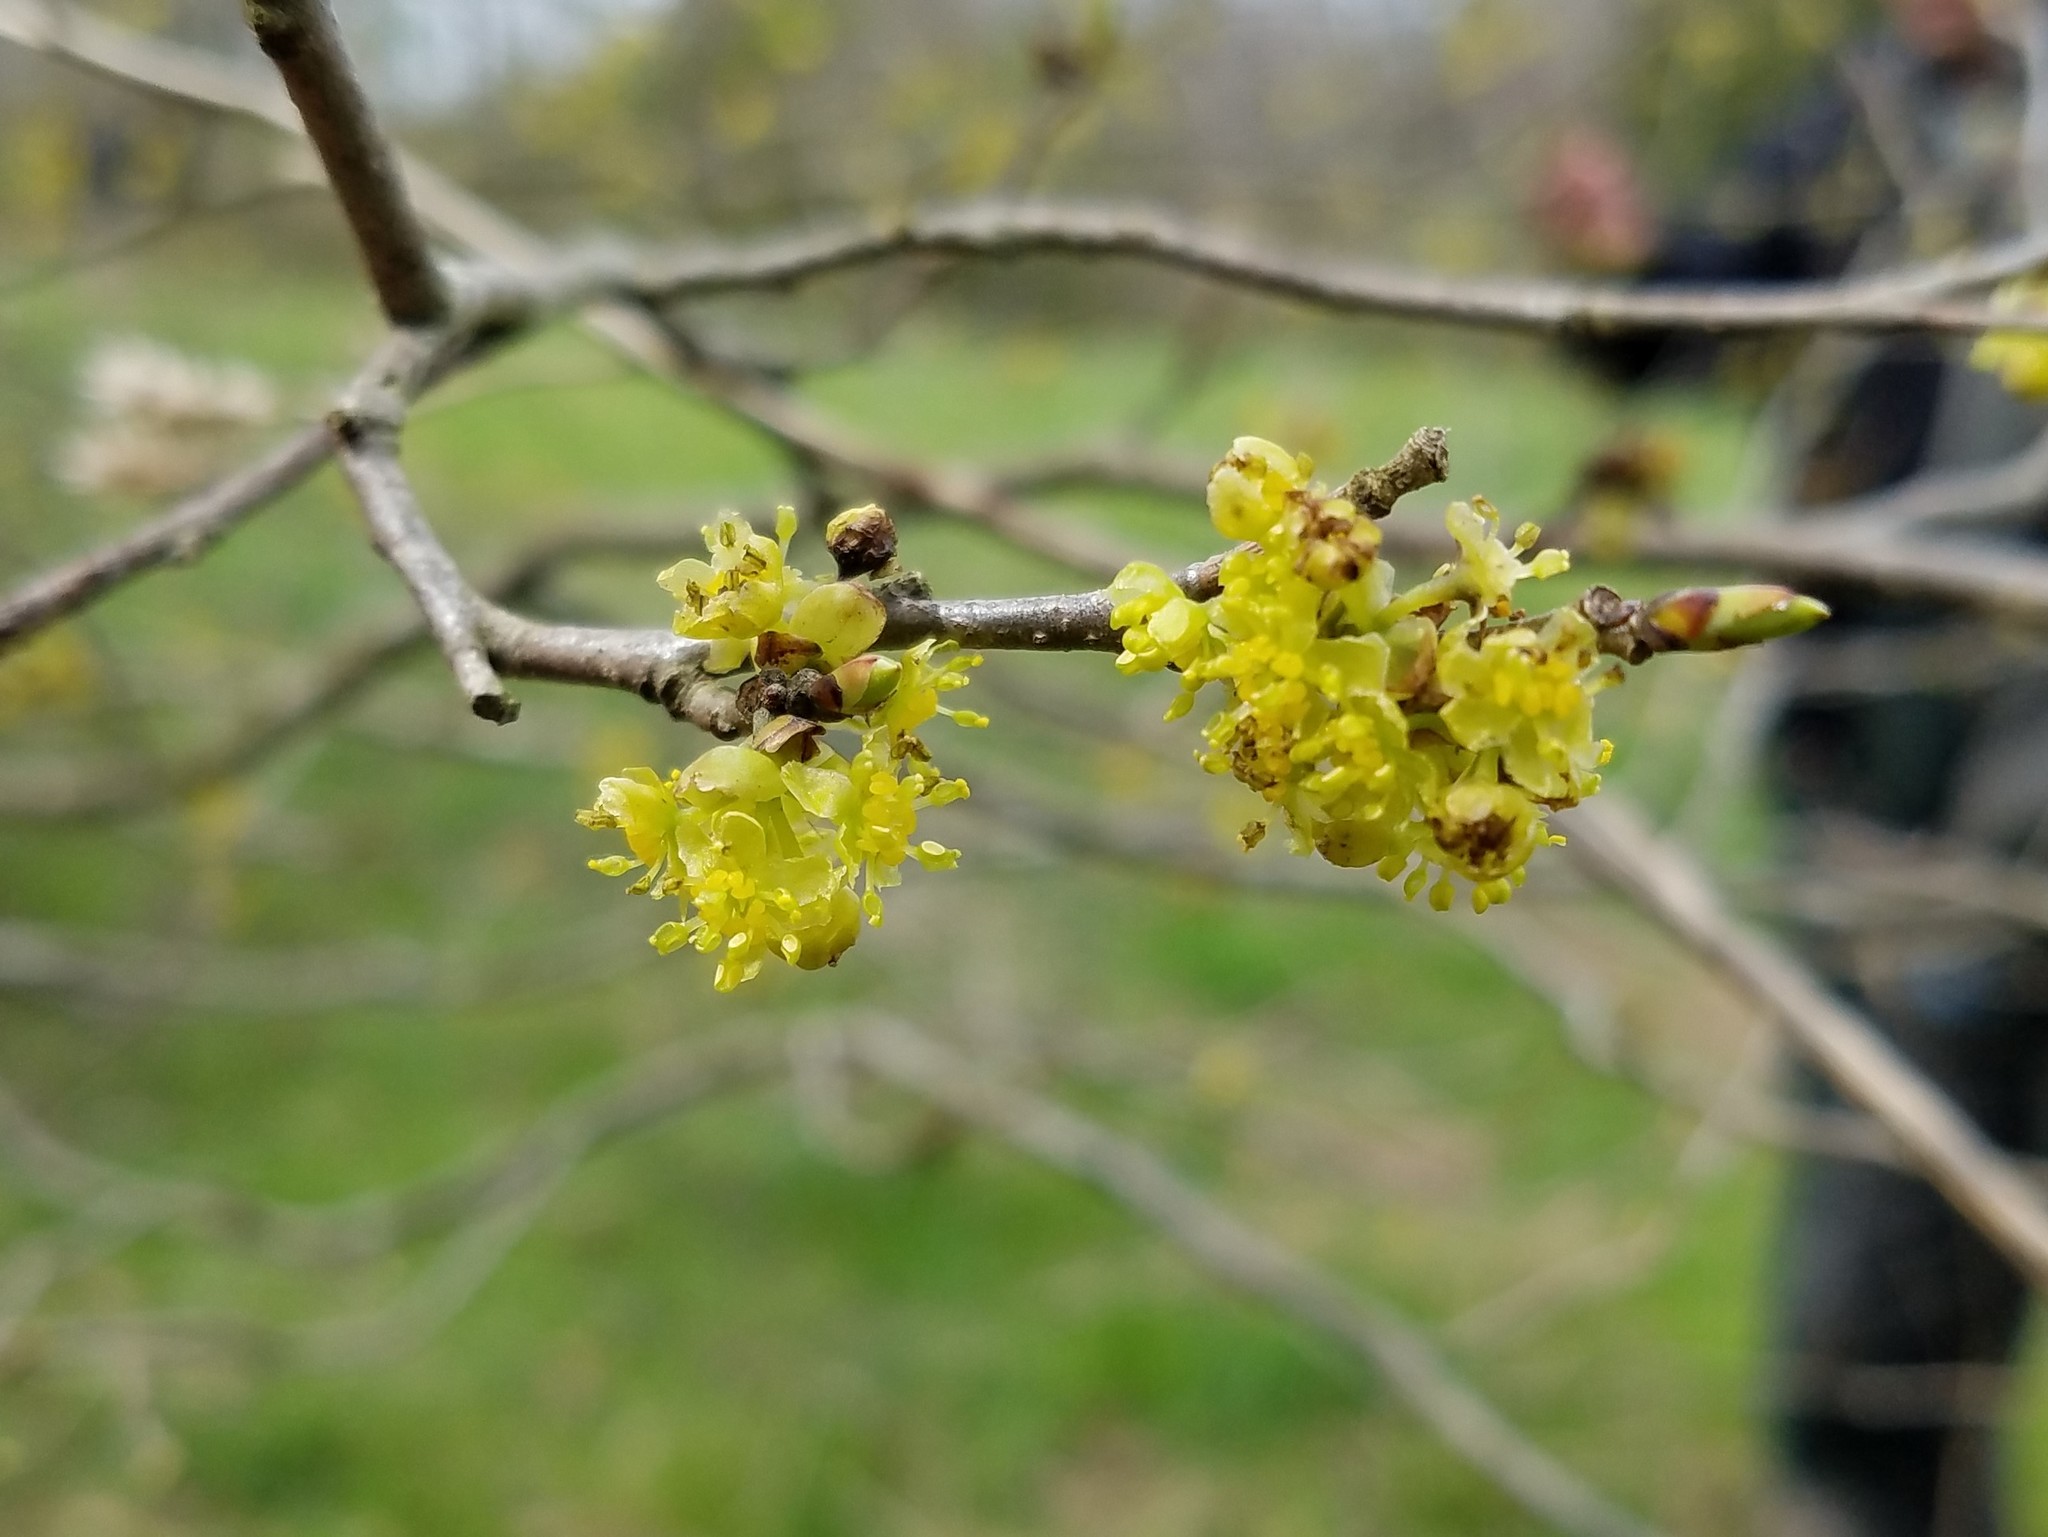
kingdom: Plantae
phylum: Tracheophyta
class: Magnoliopsida
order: Laurales
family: Lauraceae
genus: Lindera
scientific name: Lindera benzoin
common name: Spicebush
